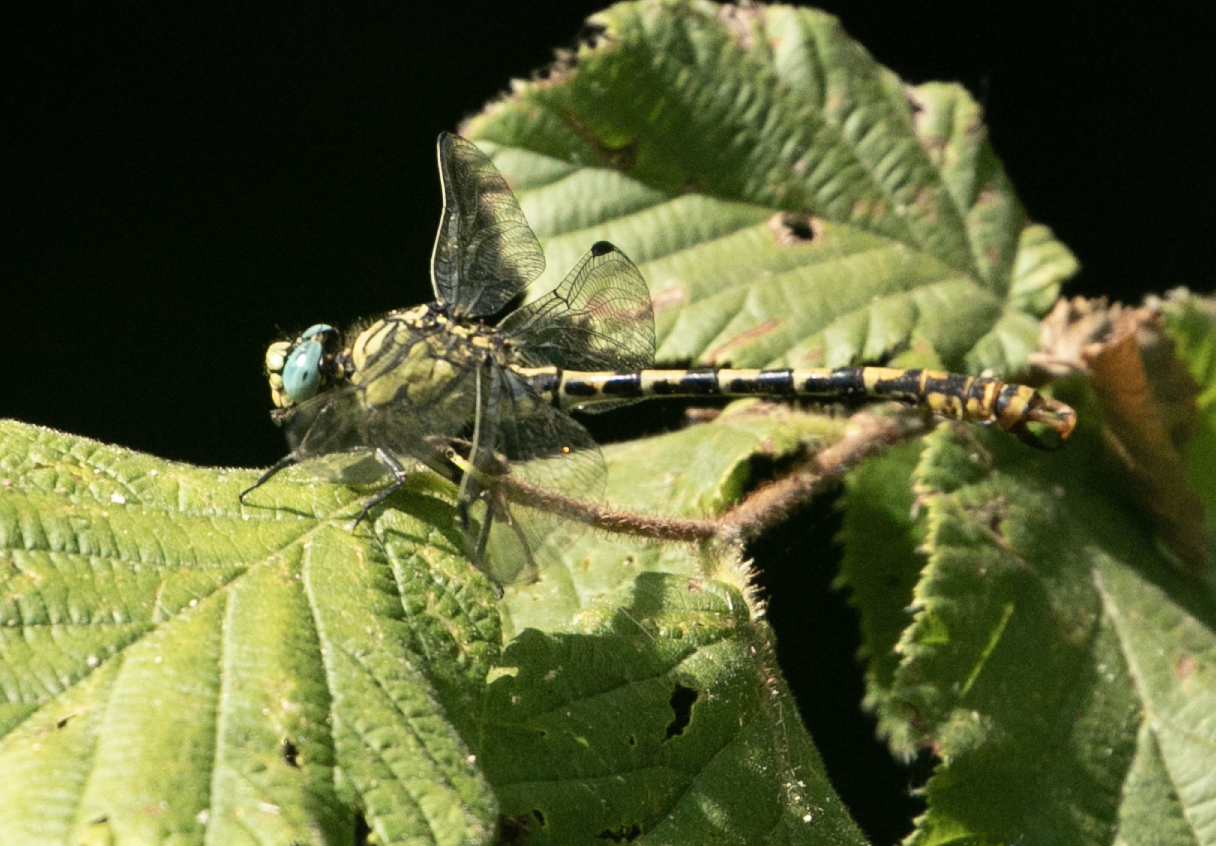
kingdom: Animalia
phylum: Arthropoda
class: Insecta
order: Odonata
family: Gomphidae
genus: Onychogomphus
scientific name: Onychogomphus forcipatus
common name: Small pincertail
